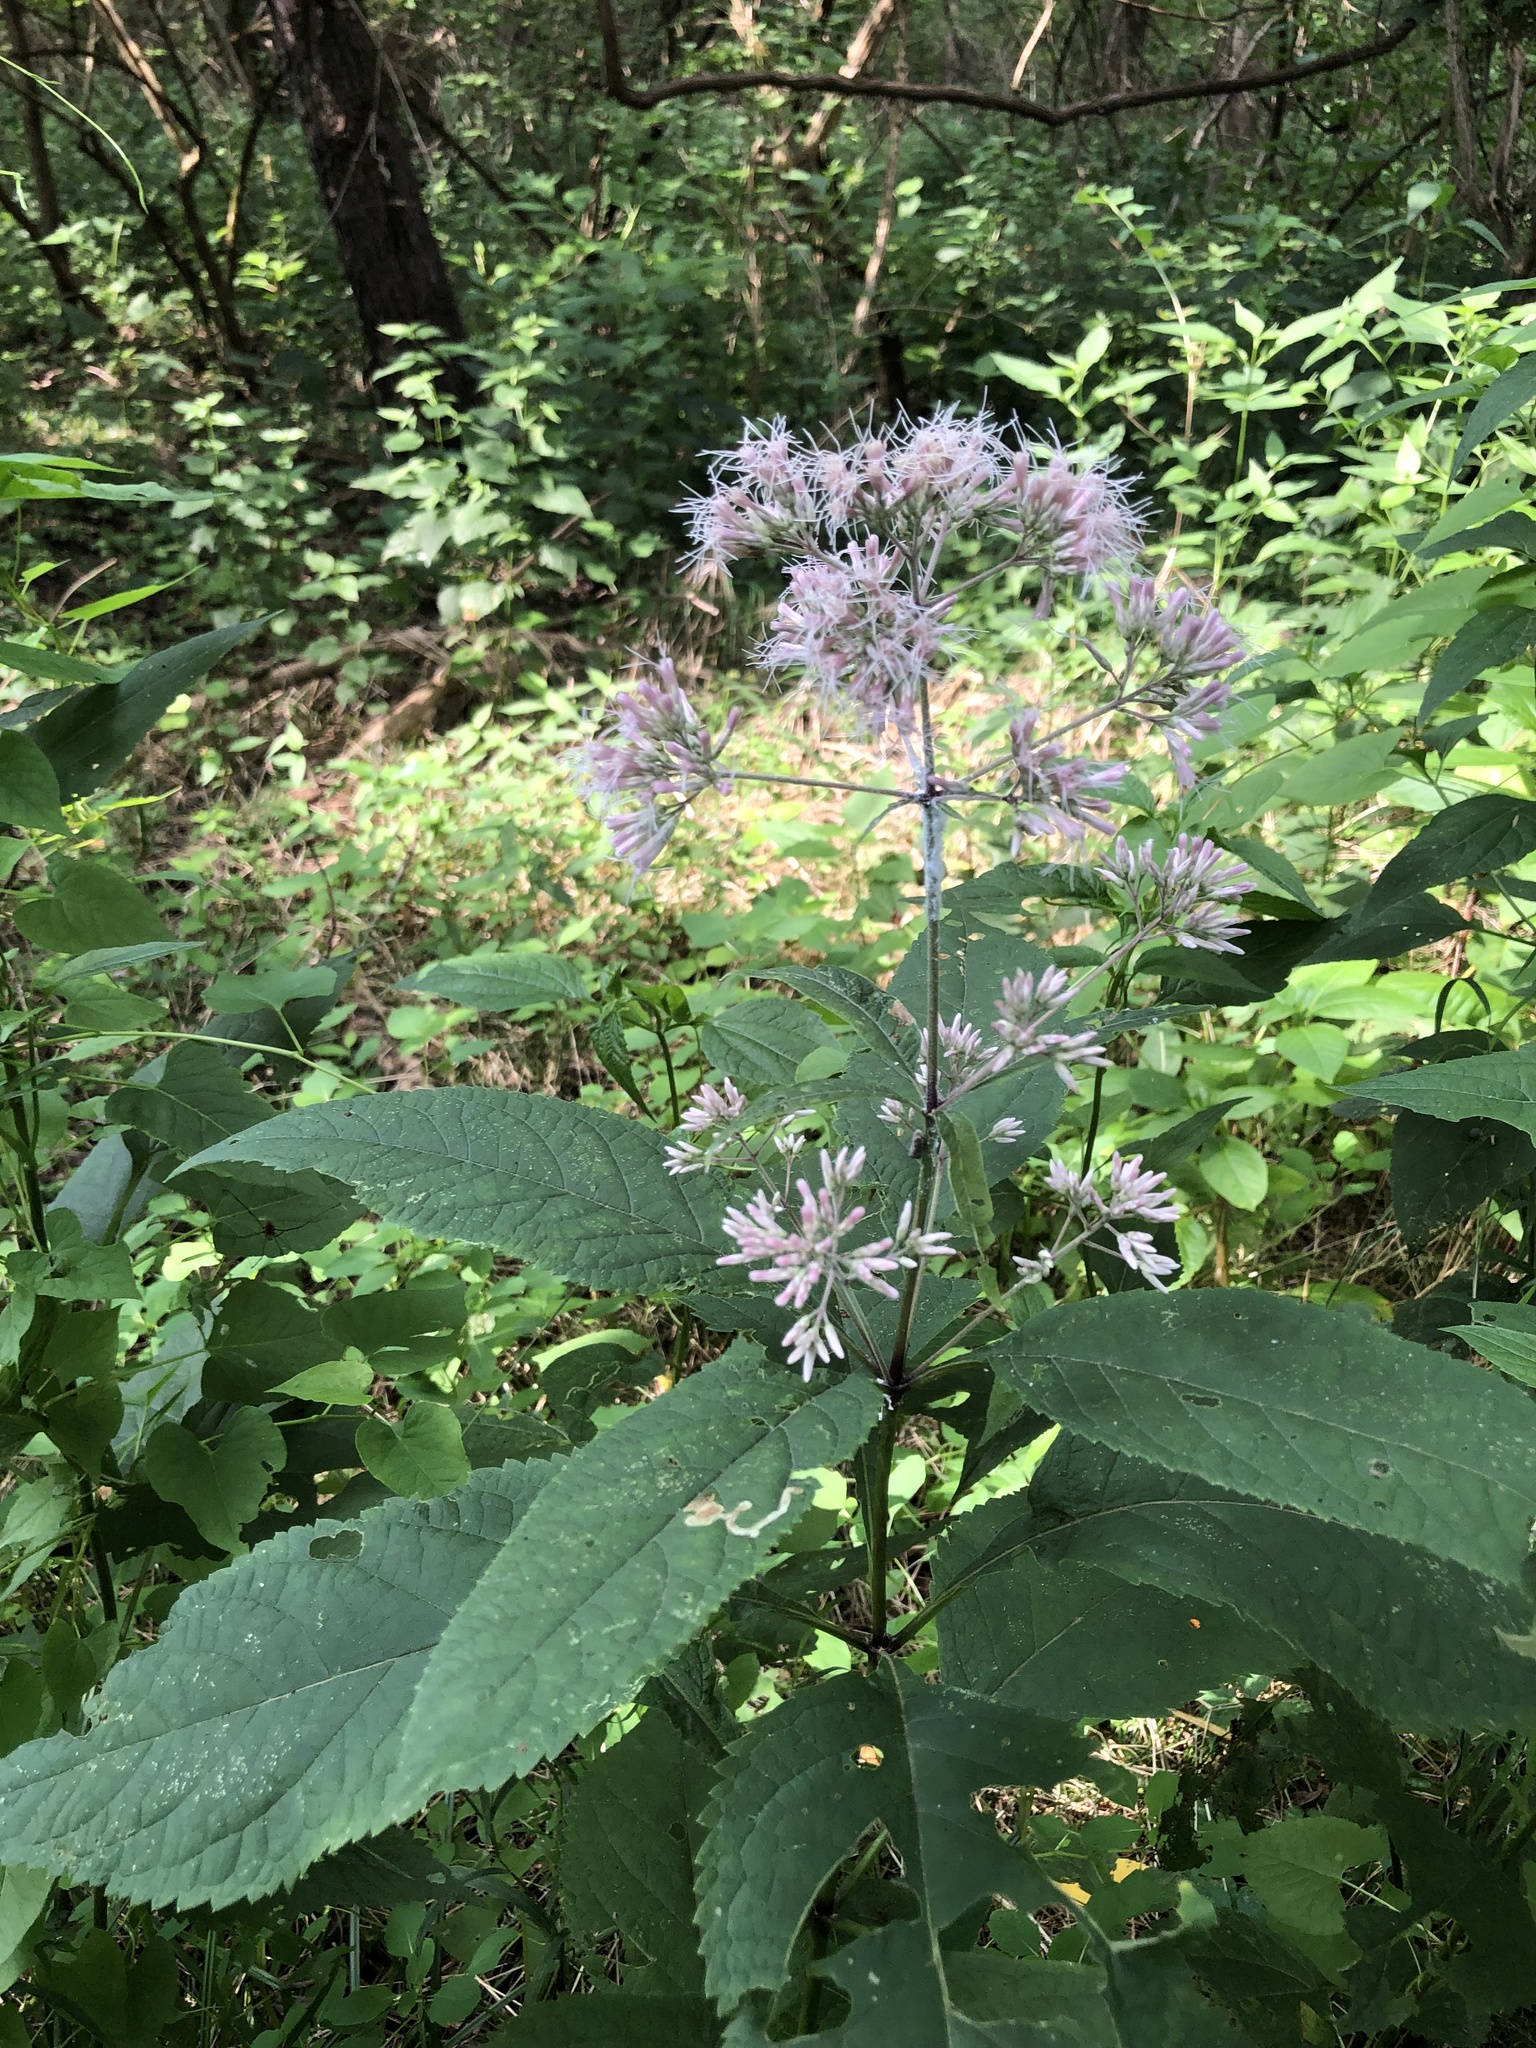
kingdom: Plantae
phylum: Tracheophyta
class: Magnoliopsida
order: Asterales
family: Asteraceae
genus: Eutrochium
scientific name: Eutrochium purpureum
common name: Gravelroot
